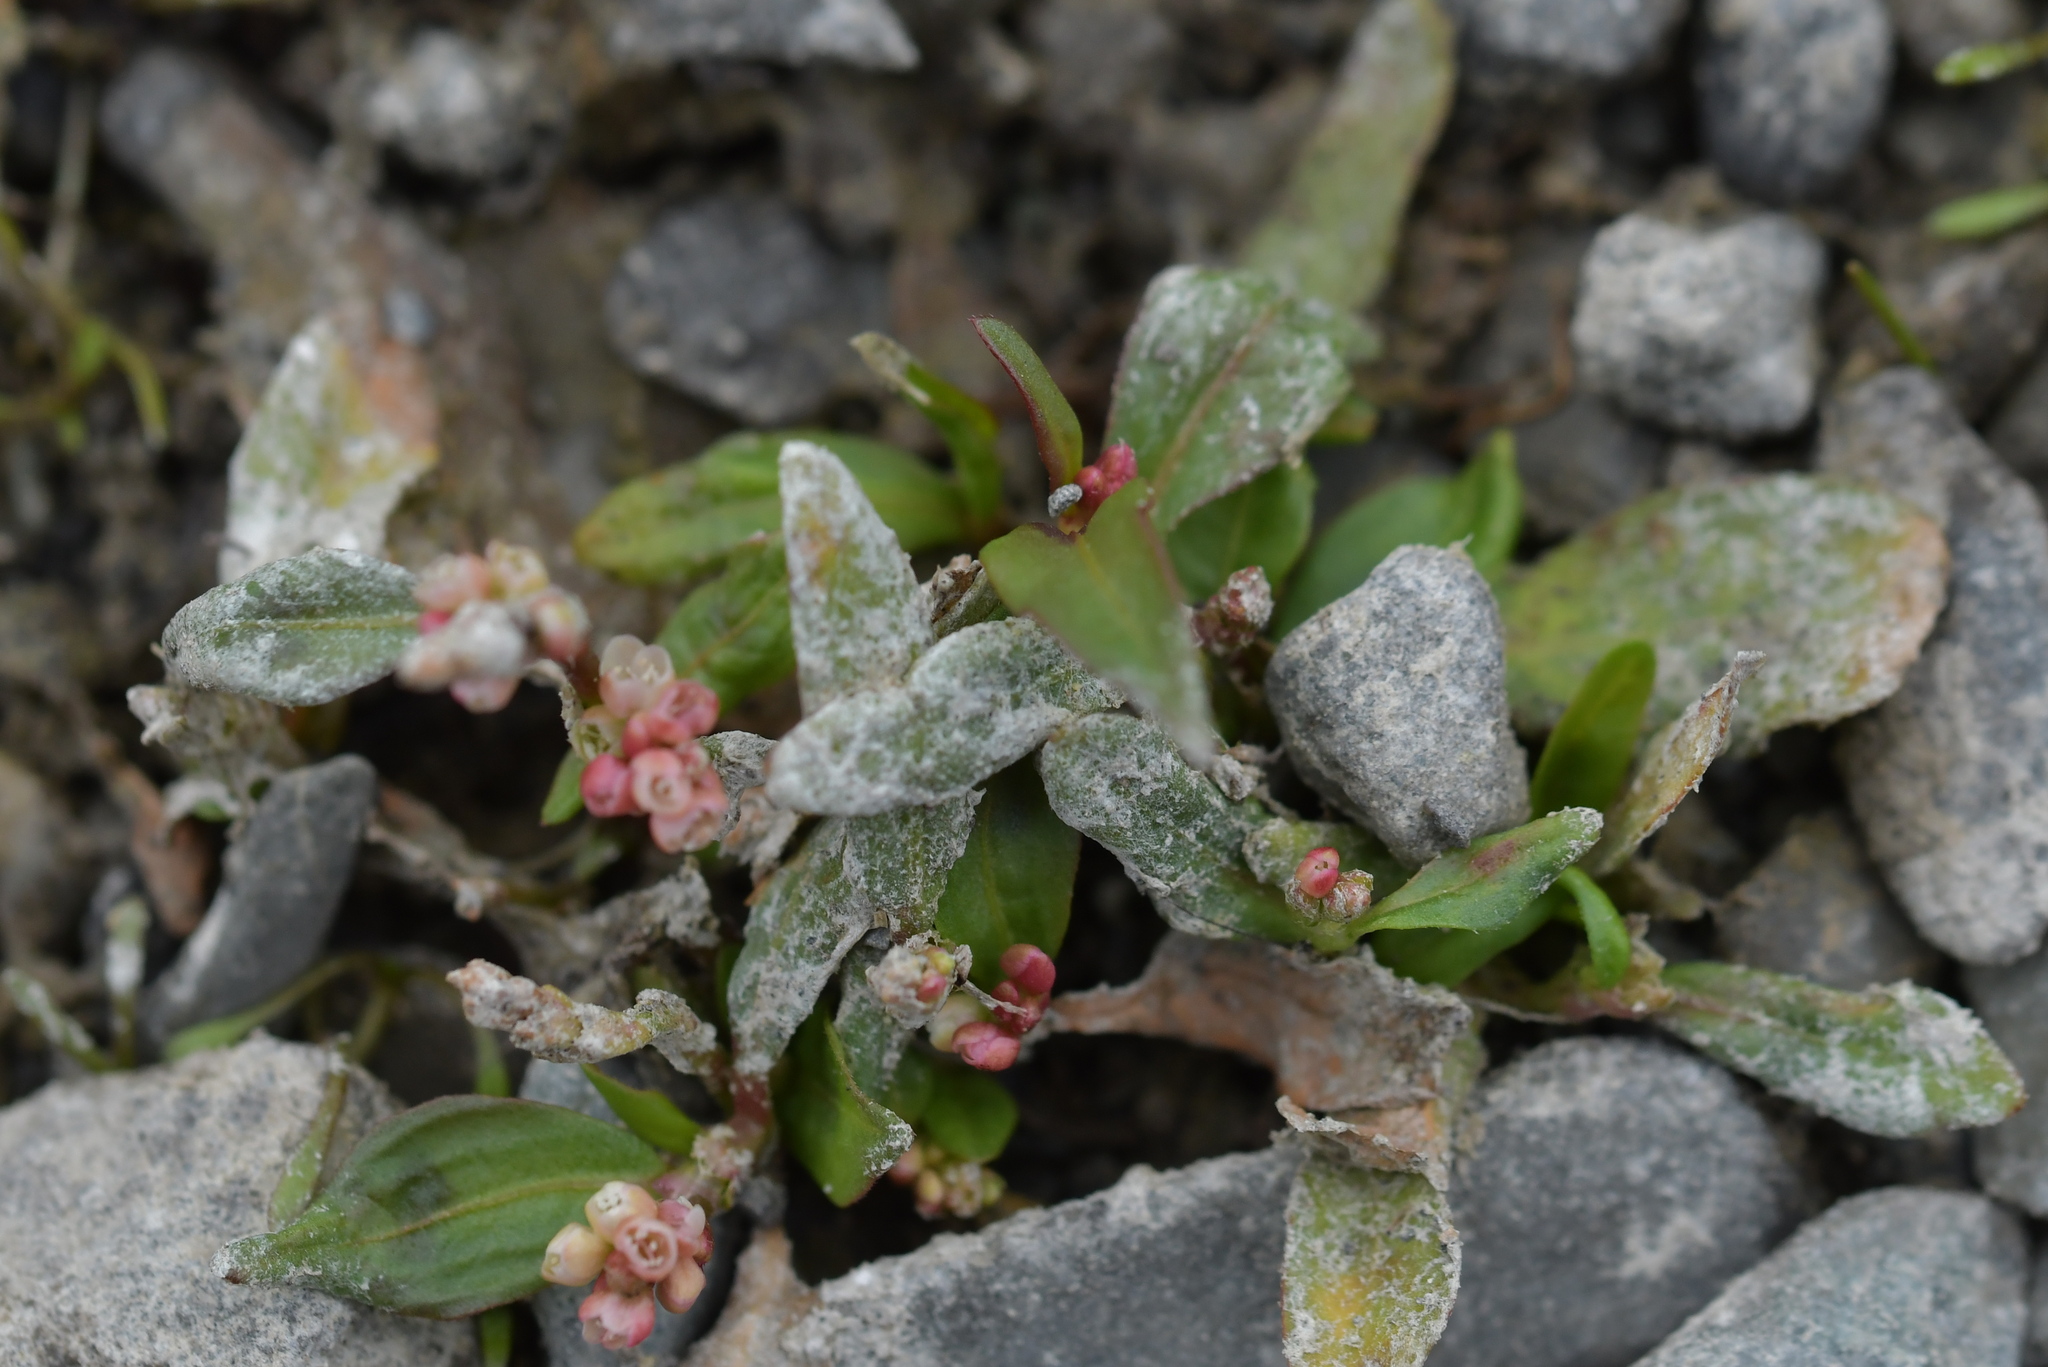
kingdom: Plantae
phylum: Tracheophyta
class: Magnoliopsida
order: Caryophyllales
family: Polygonaceae
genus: Persicaria
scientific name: Persicaria maculosa
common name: Redshank
